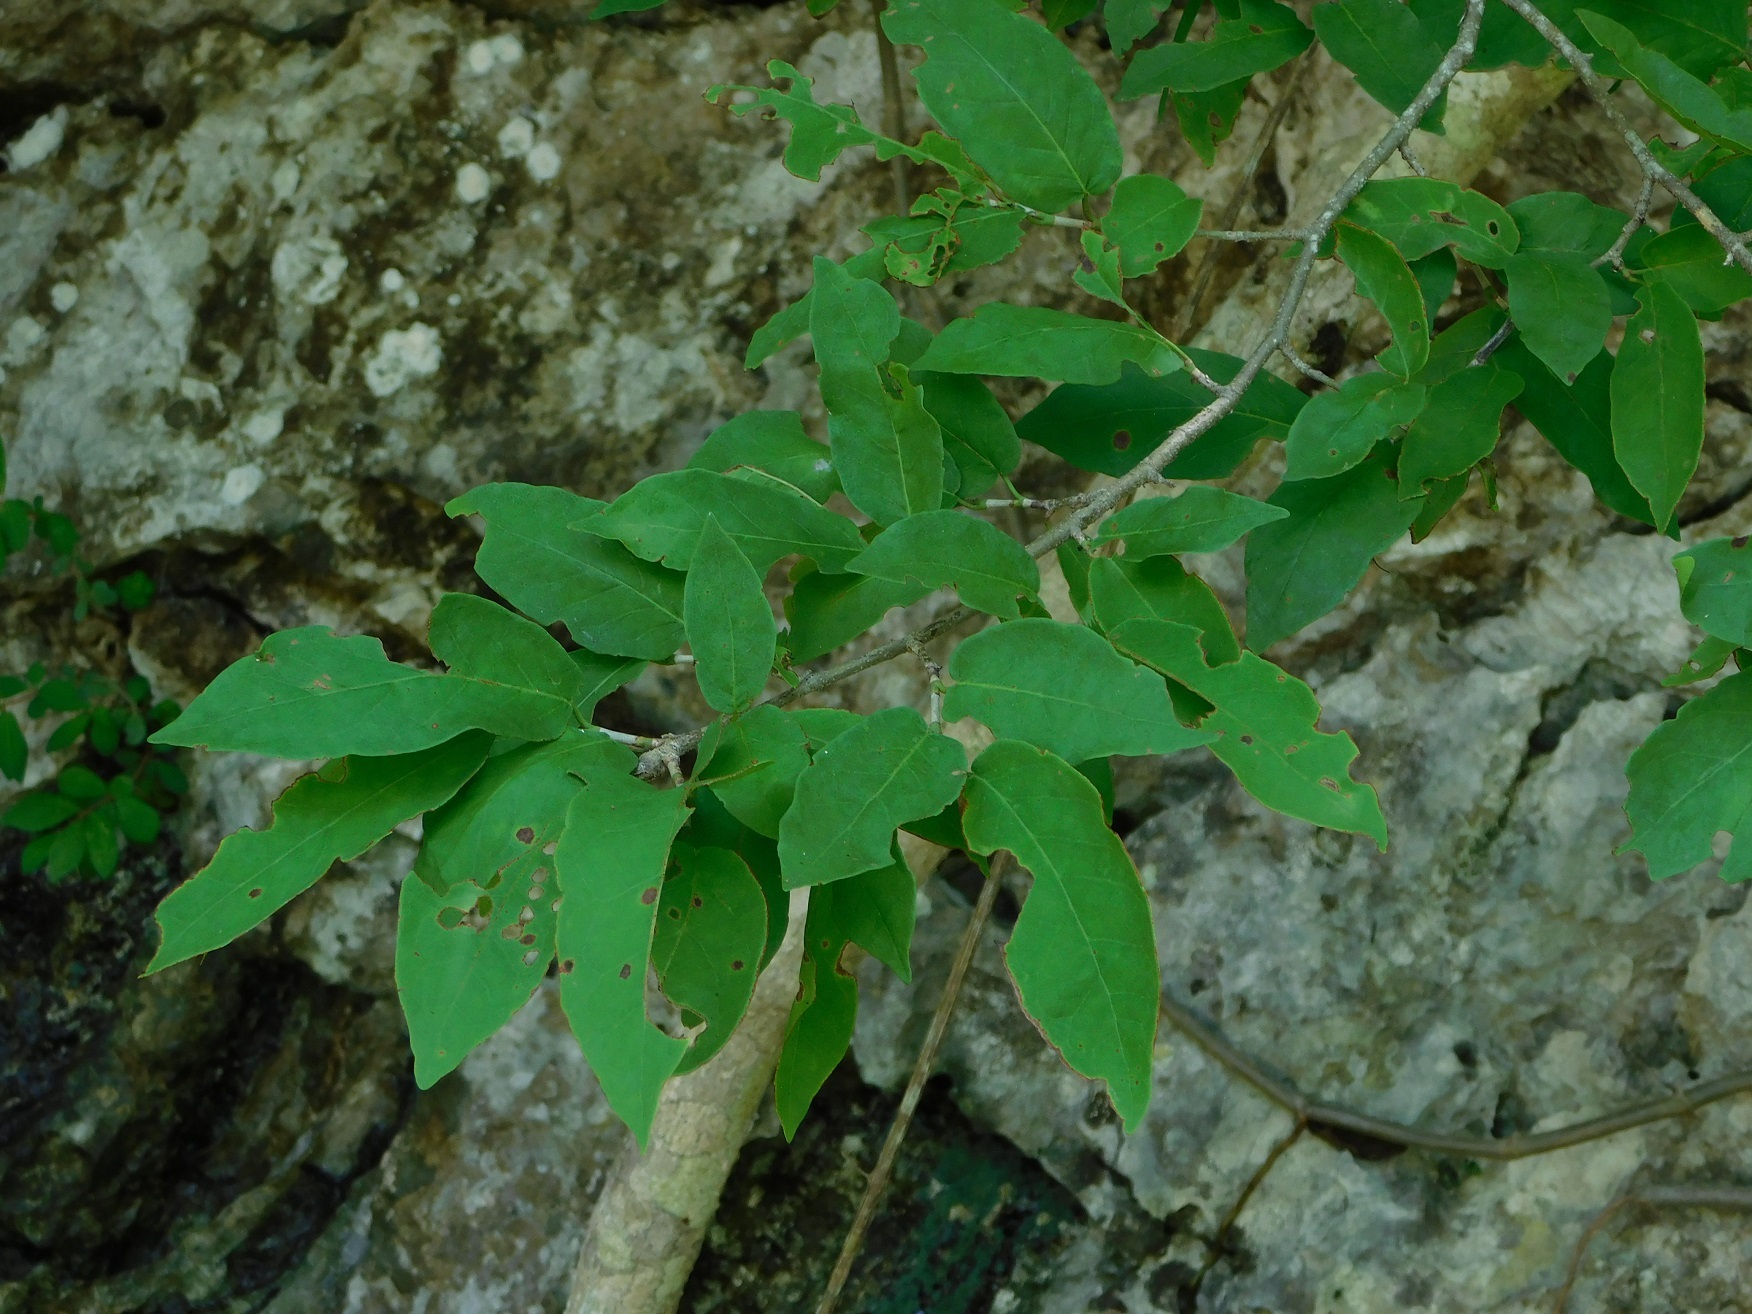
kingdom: Plantae
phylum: Tracheophyta
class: Magnoliopsida
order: Caryophyllales
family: Polygonaceae
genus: Coccoloba
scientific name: Coccoloba tunii
